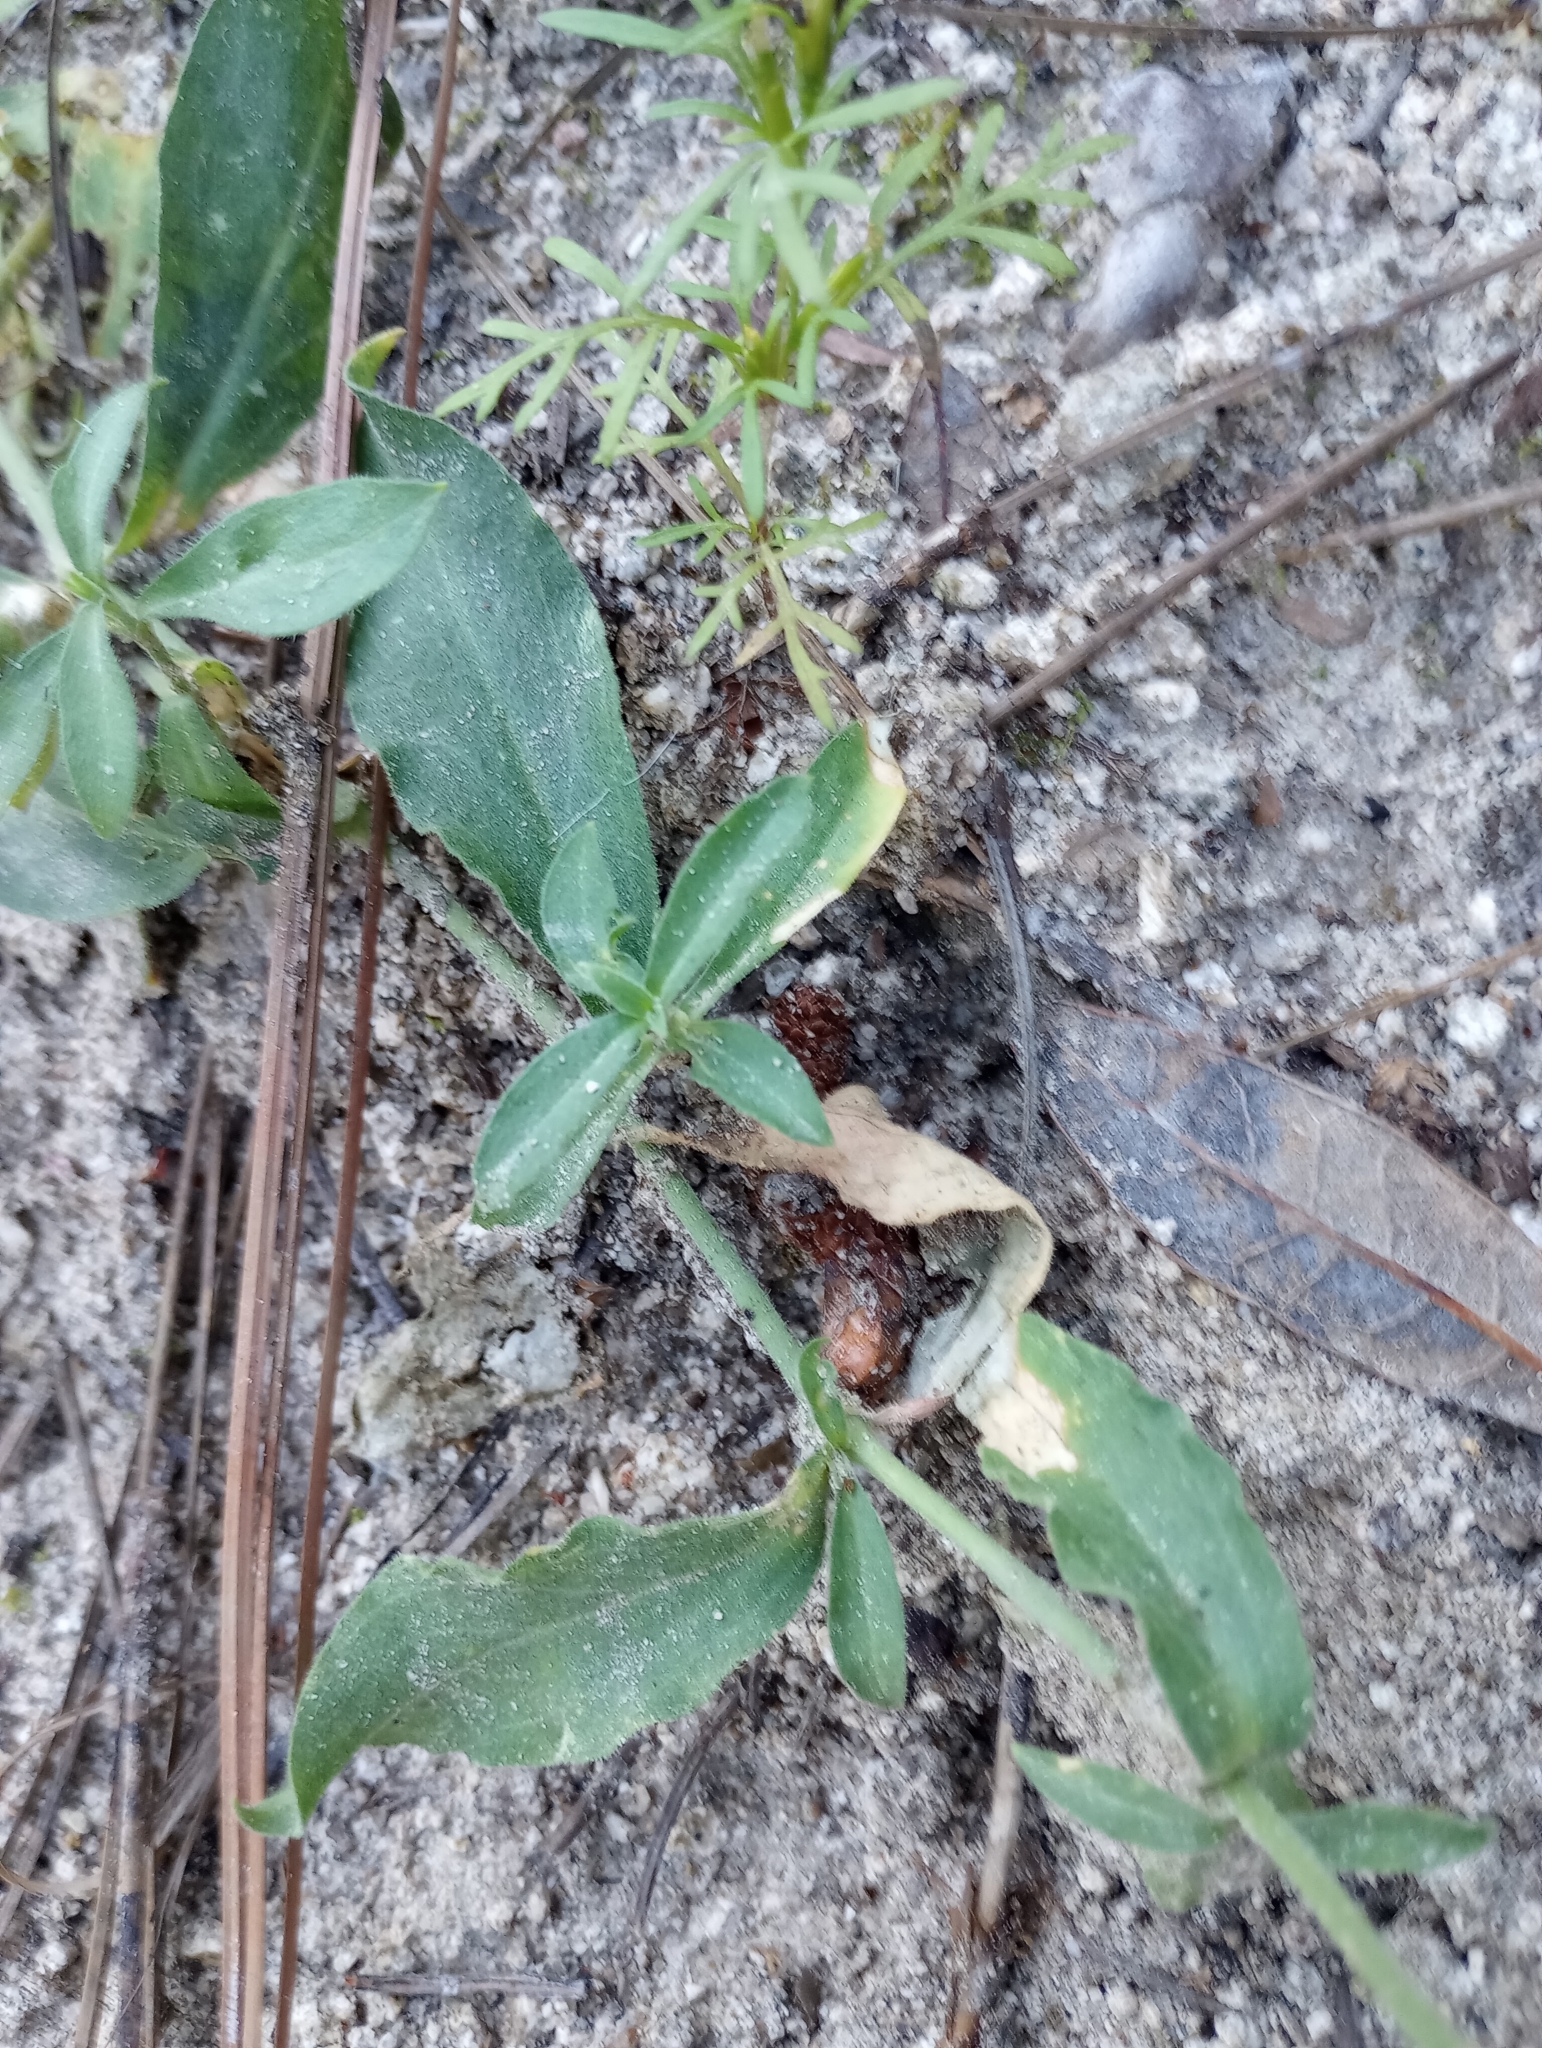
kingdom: Plantae
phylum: Tracheophyta
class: Magnoliopsida
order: Caryophyllales
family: Caryophyllaceae
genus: Silene
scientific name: Silene laciniata
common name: Indian-pink
